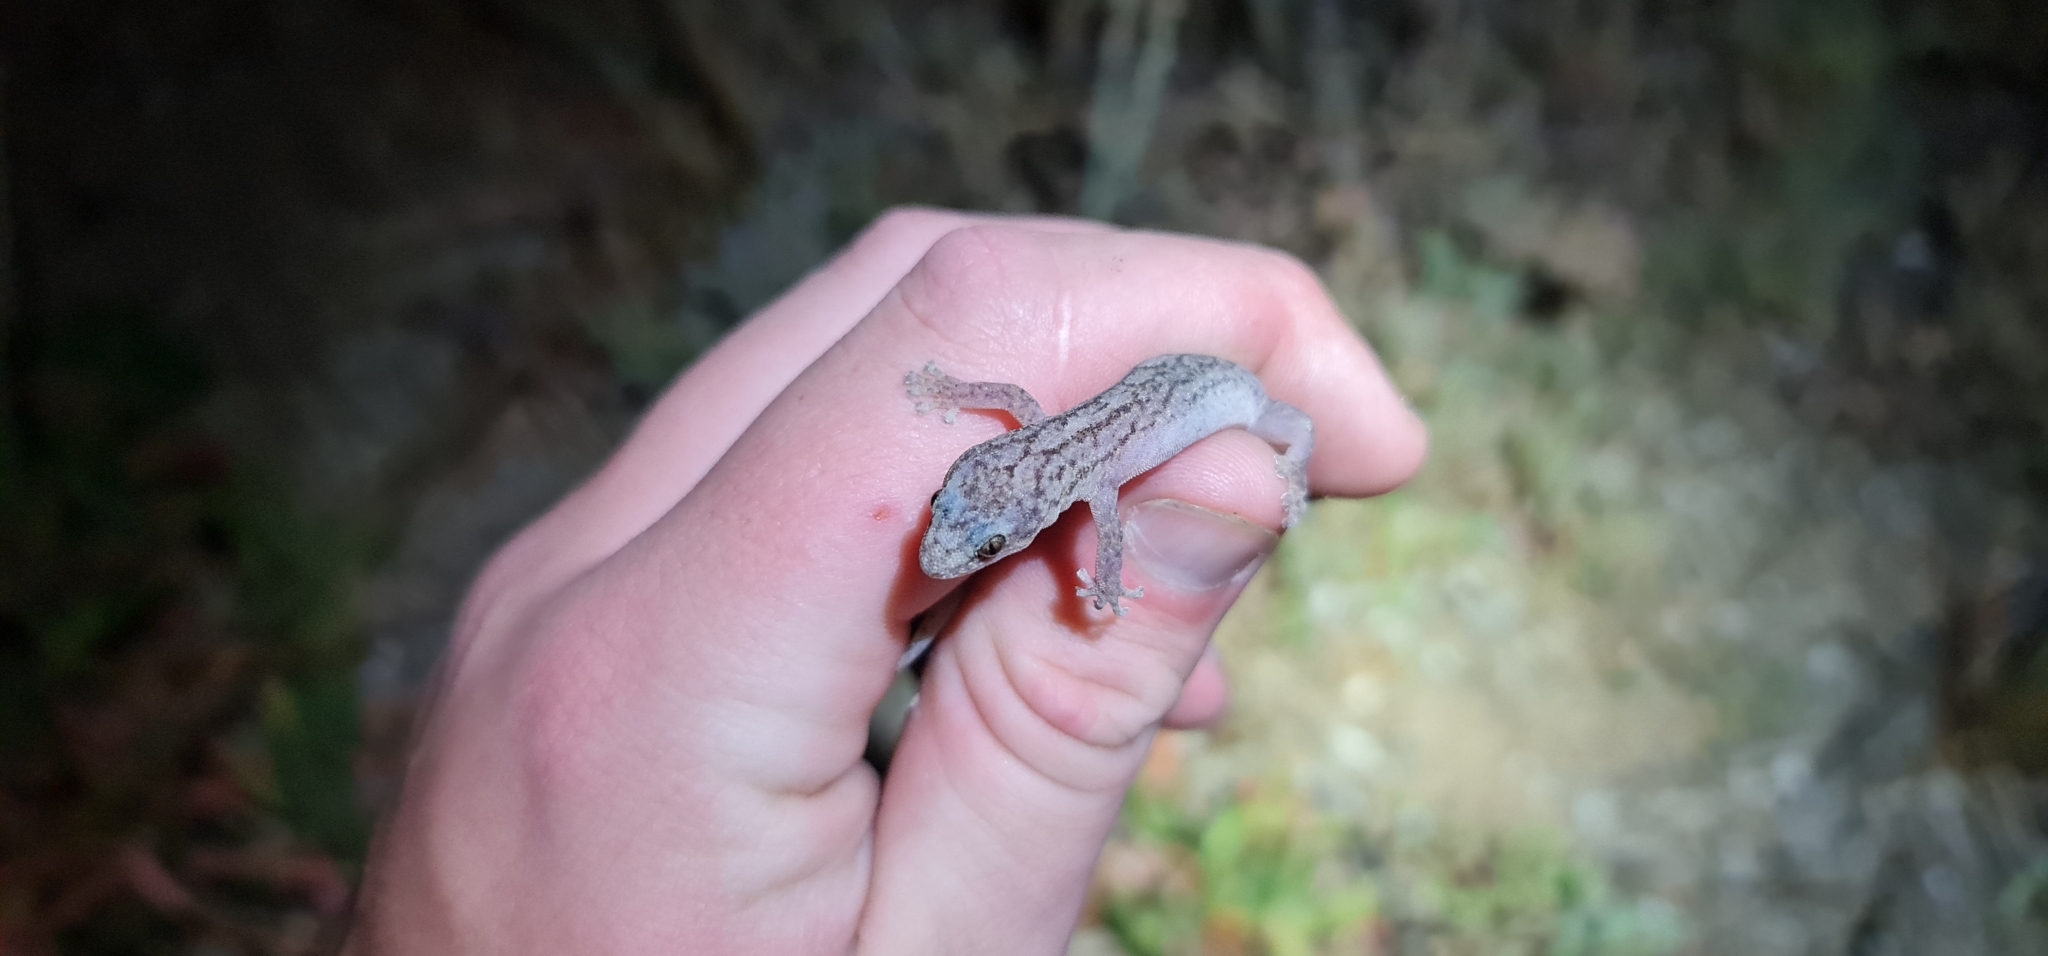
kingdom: Animalia
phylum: Chordata
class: Squamata
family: Gekkonidae
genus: Christinus
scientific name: Christinus marmoratus
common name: Marbled gecko
